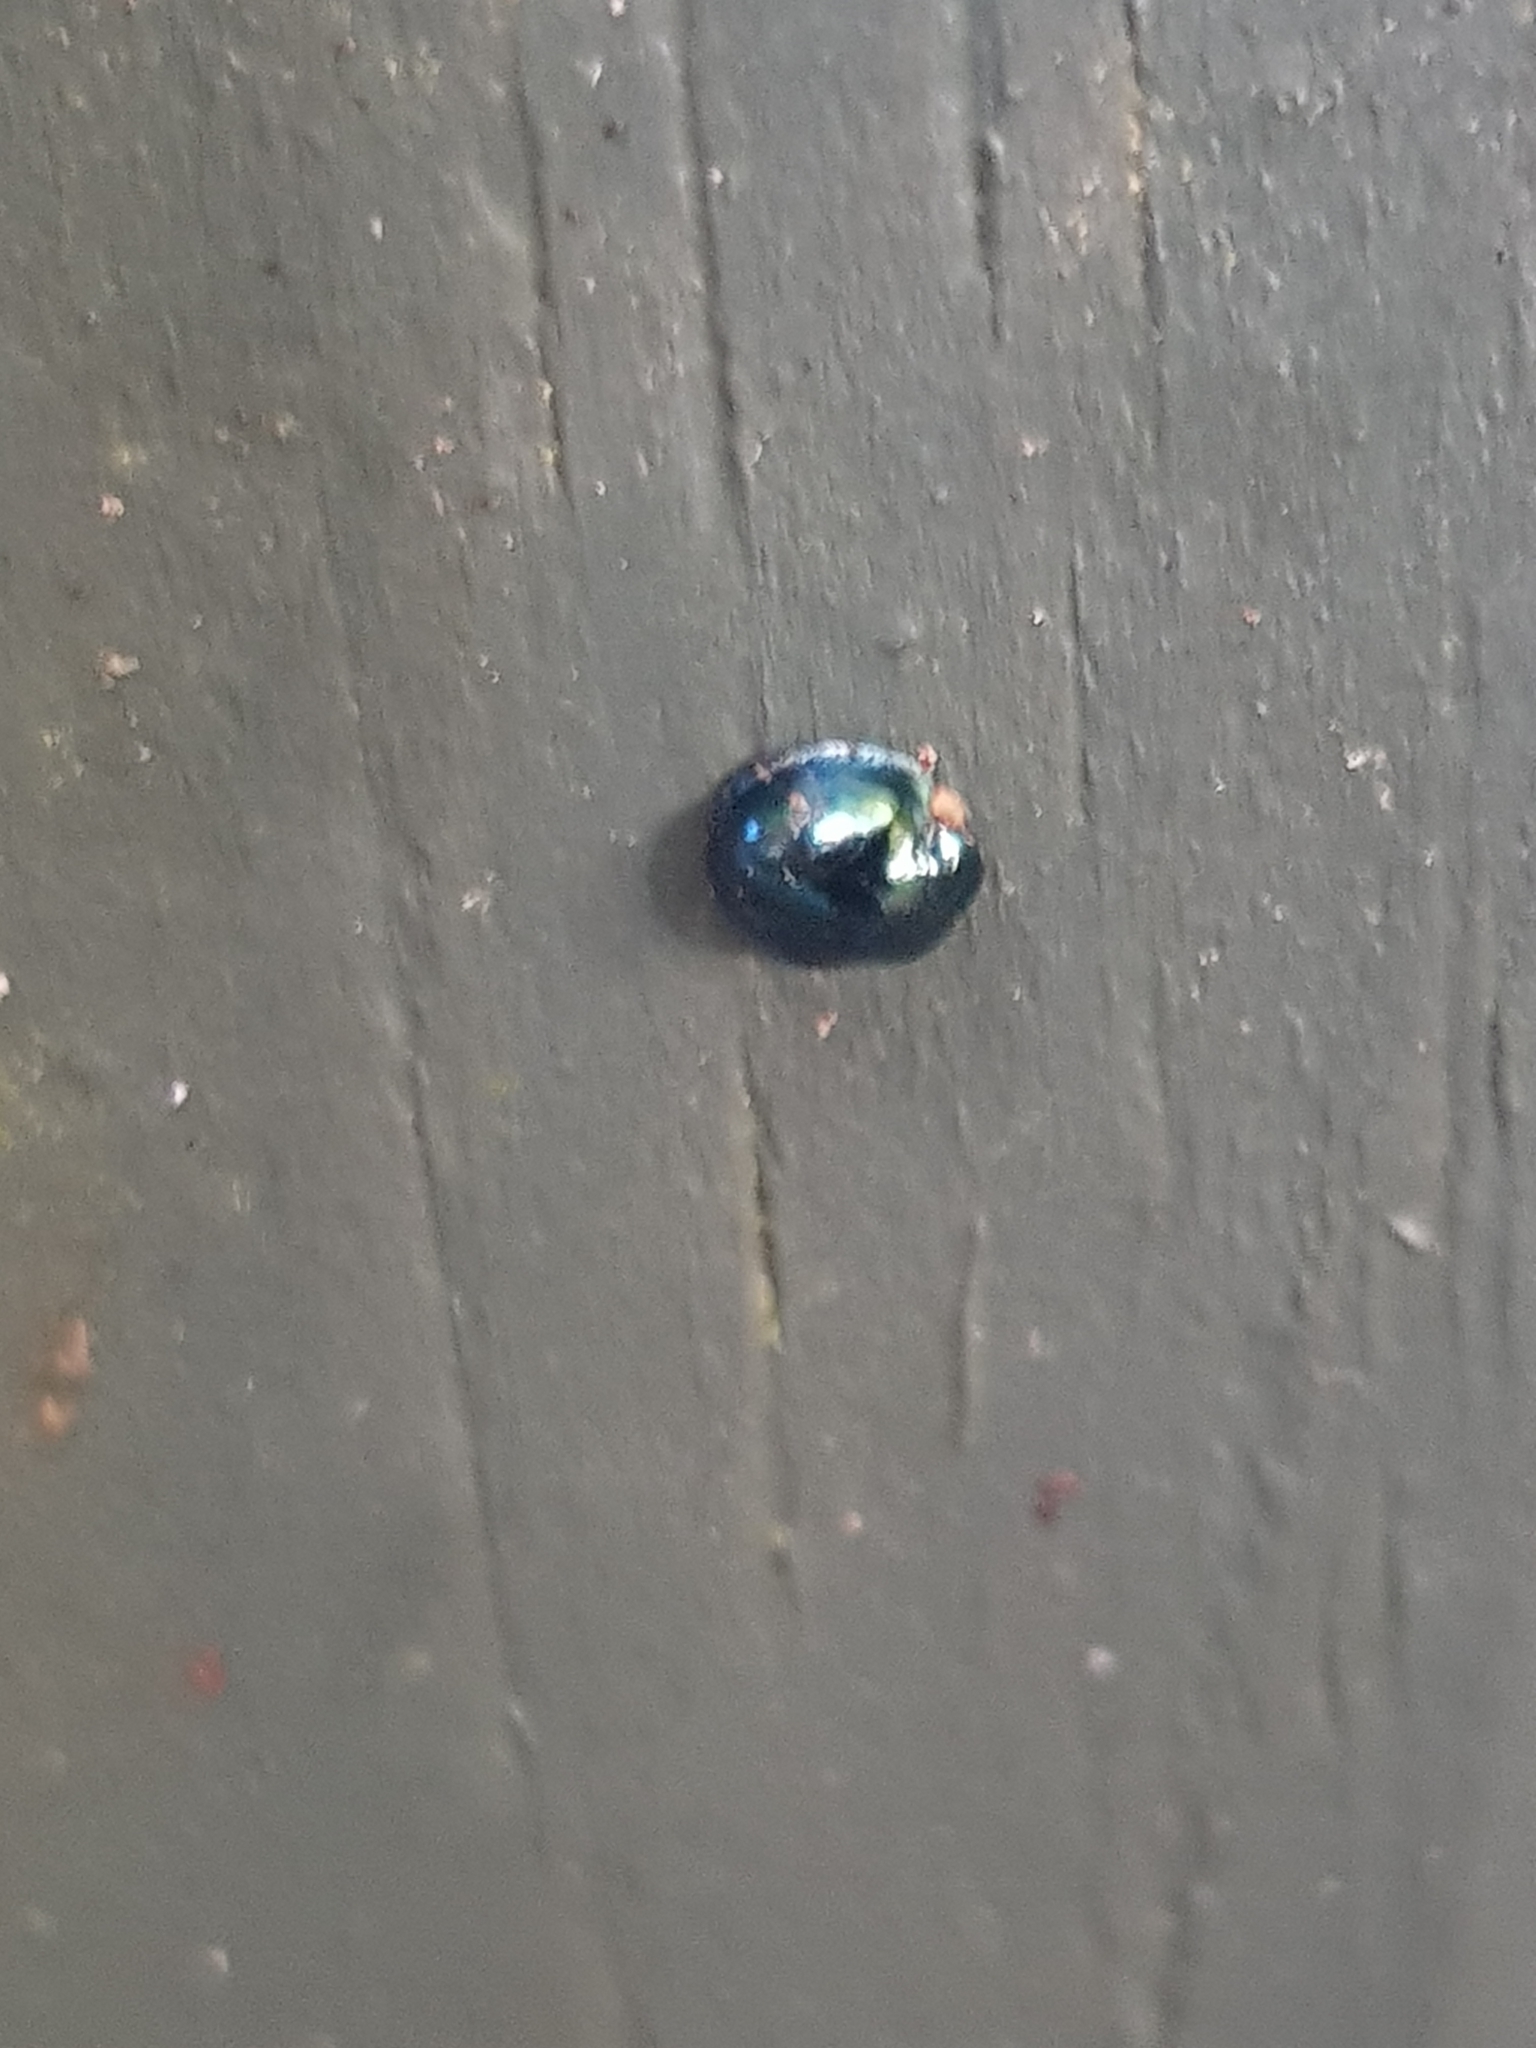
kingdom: Animalia
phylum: Arthropoda
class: Insecta
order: Coleoptera
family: Coccinellidae
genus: Halmus
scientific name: Halmus chalybeus
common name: Steel blue ladybird beetle
